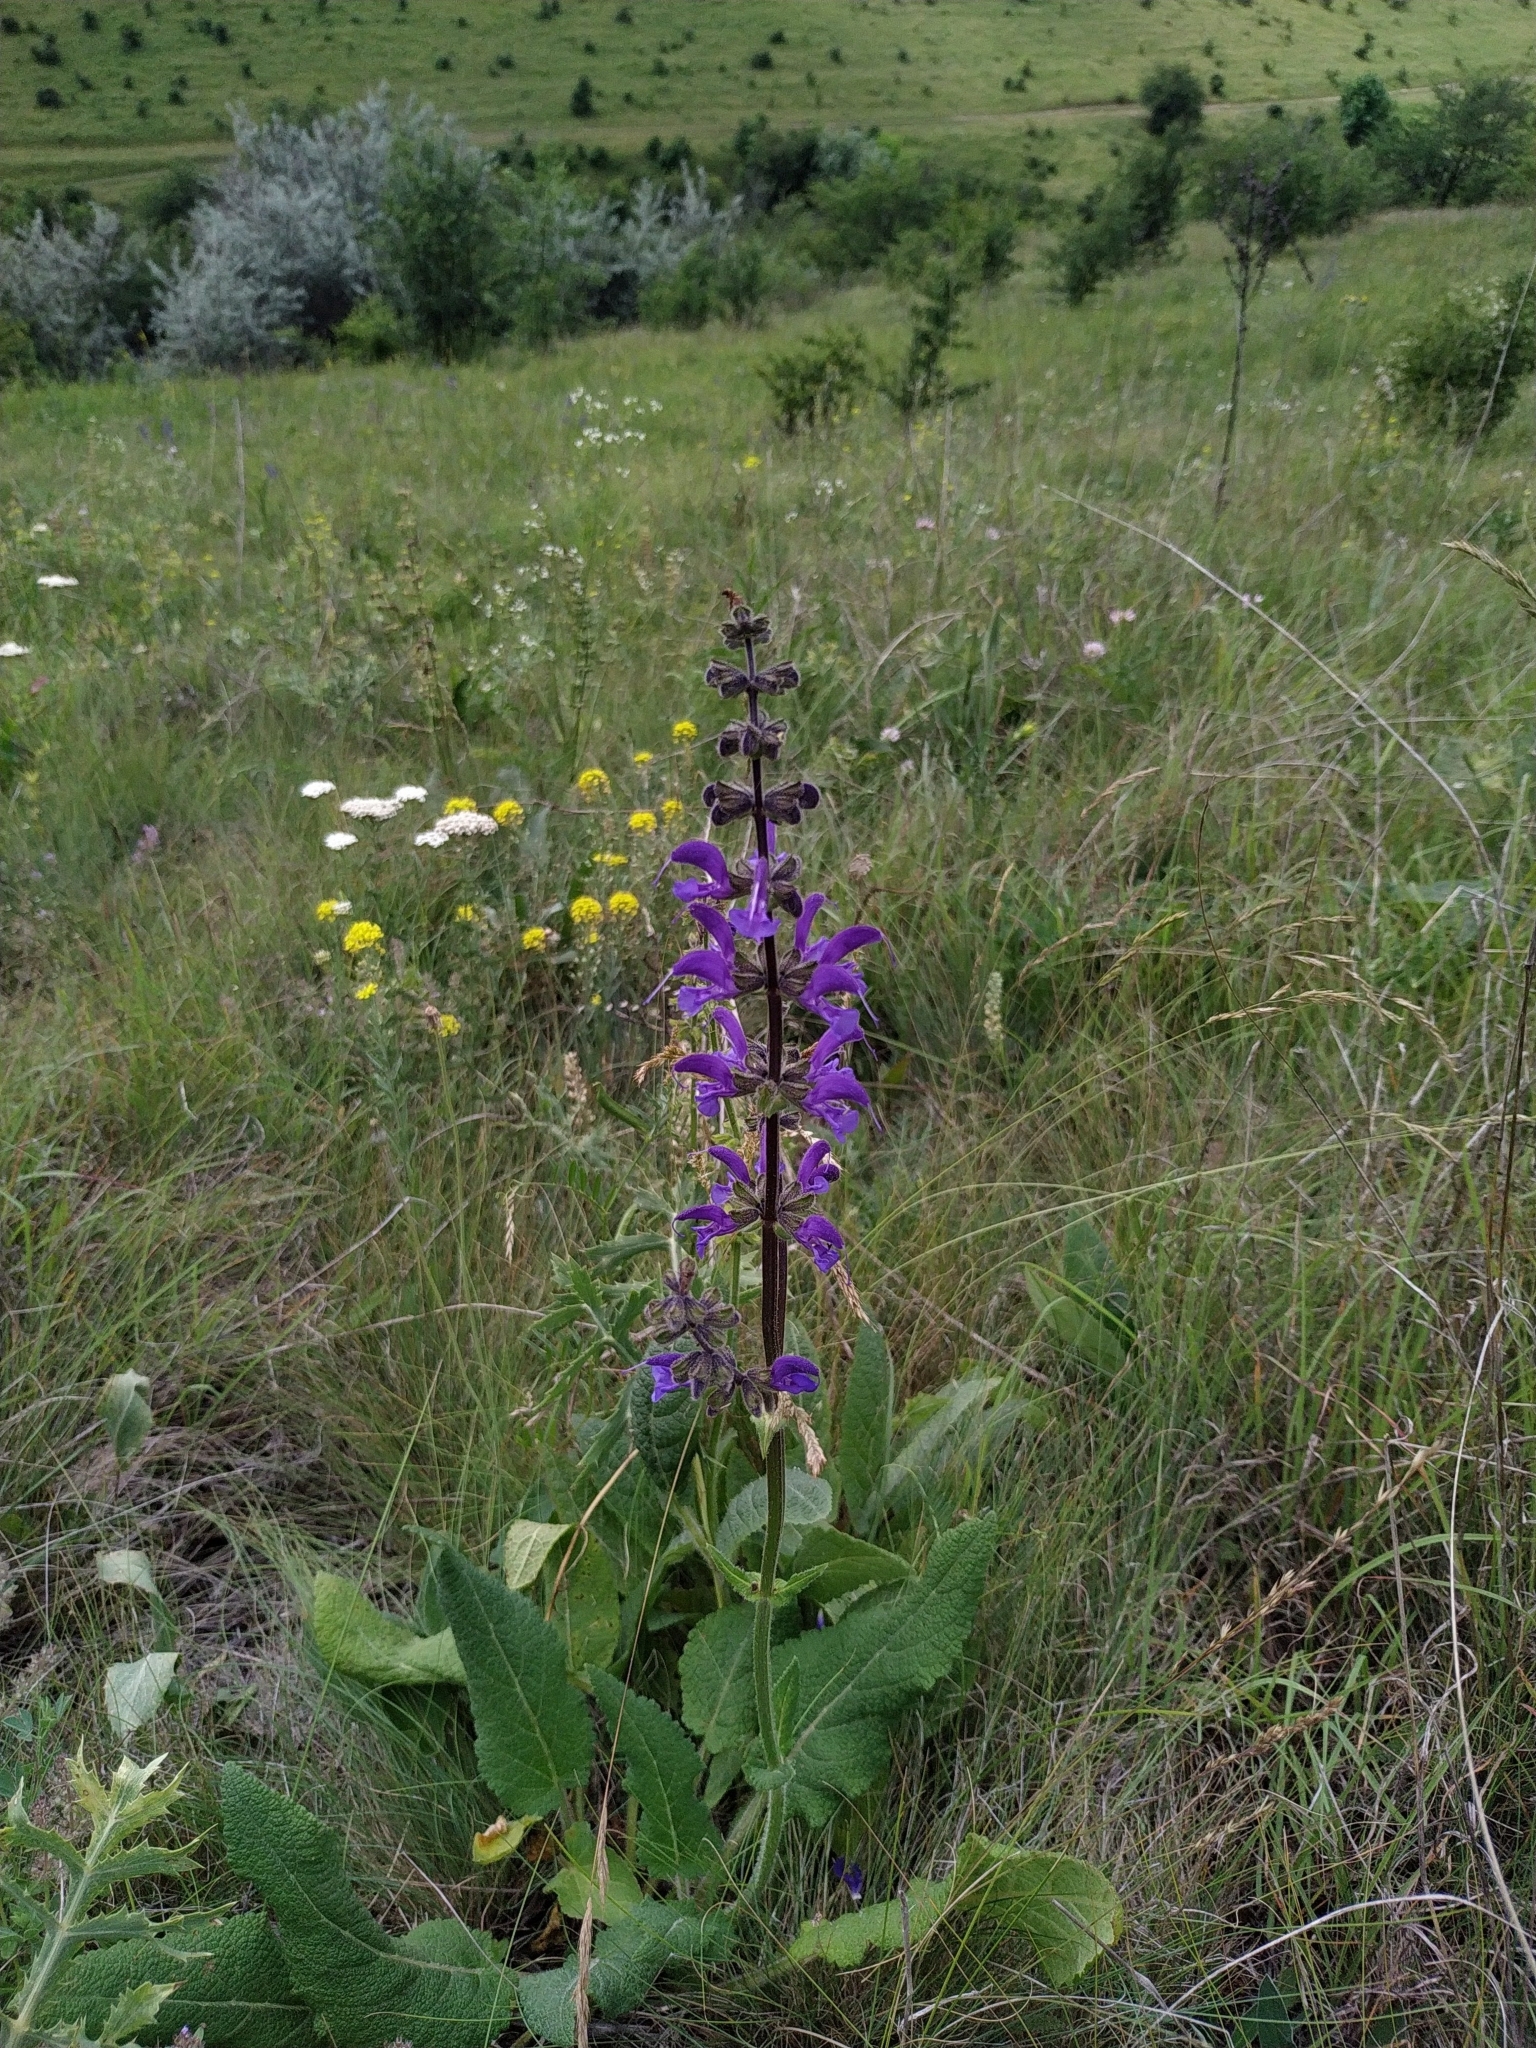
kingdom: Plantae
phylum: Tracheophyta
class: Magnoliopsida
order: Lamiales
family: Lamiaceae
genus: Salvia
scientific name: Salvia pratensis
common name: Meadow sage
